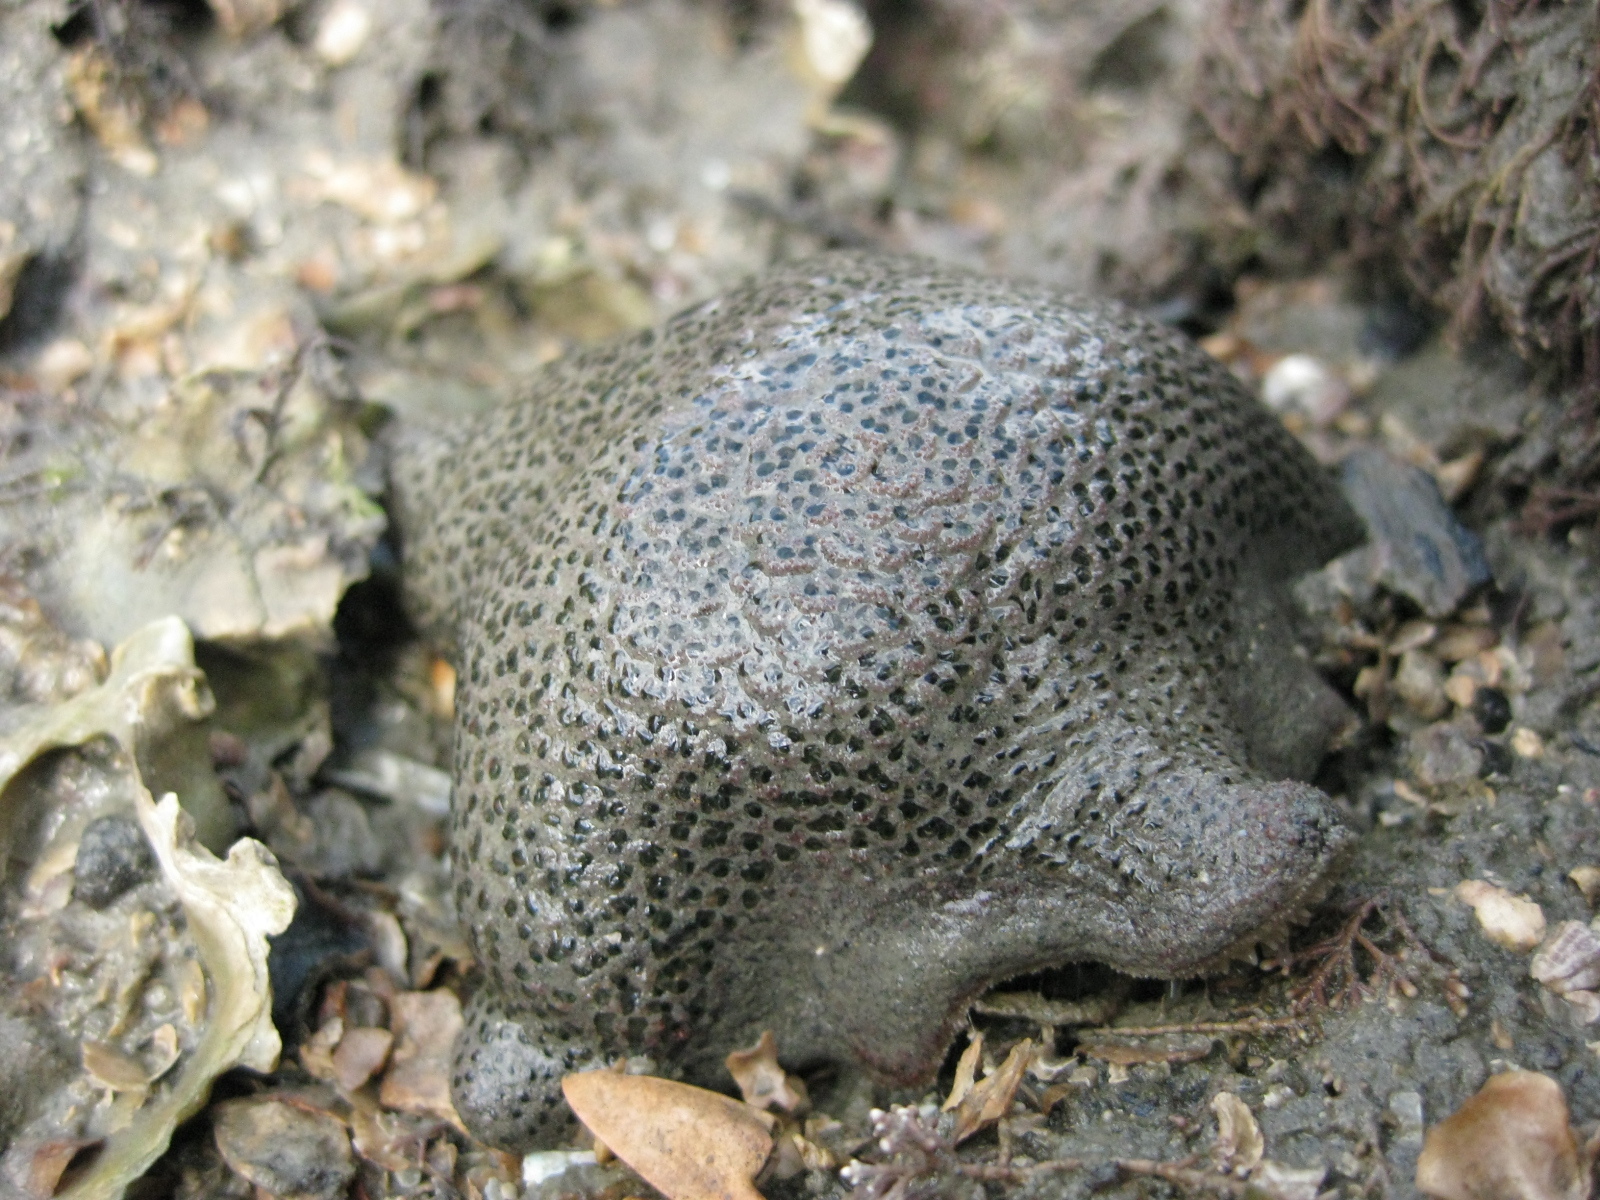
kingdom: Animalia
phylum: Echinodermata
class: Asteroidea
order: Valvatida
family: Asterinidae
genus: Patiriella
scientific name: Patiriella regularis
